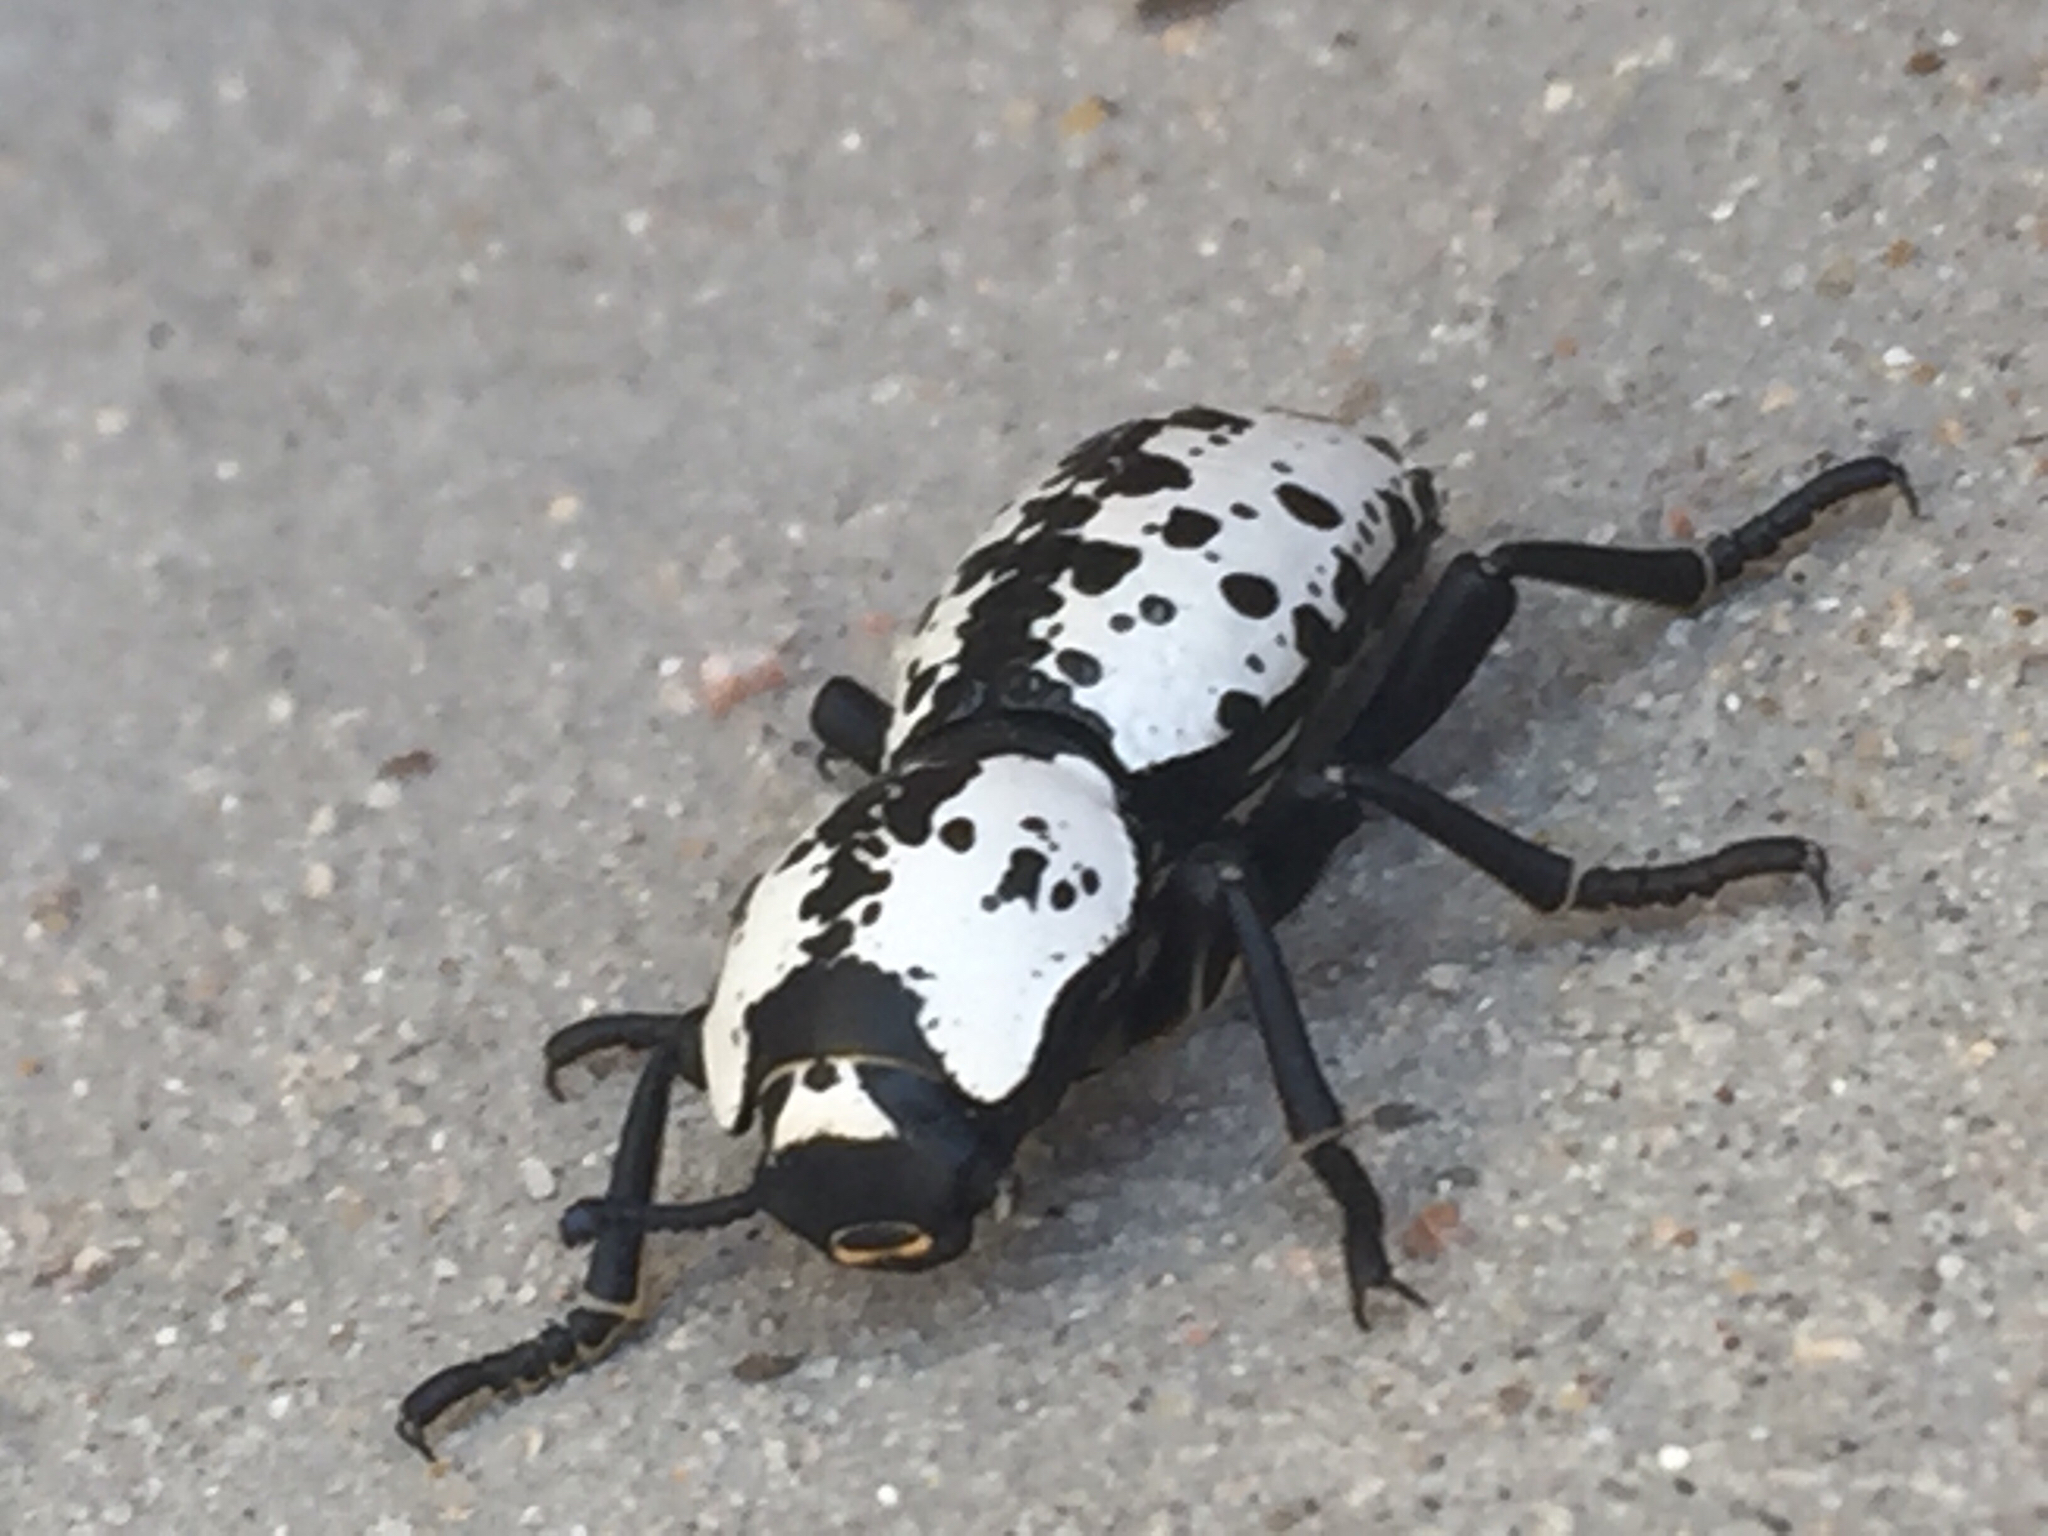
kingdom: Animalia
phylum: Arthropoda
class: Insecta
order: Coleoptera
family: Zopheridae
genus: Zopherus
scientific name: Zopherus nodulosus
